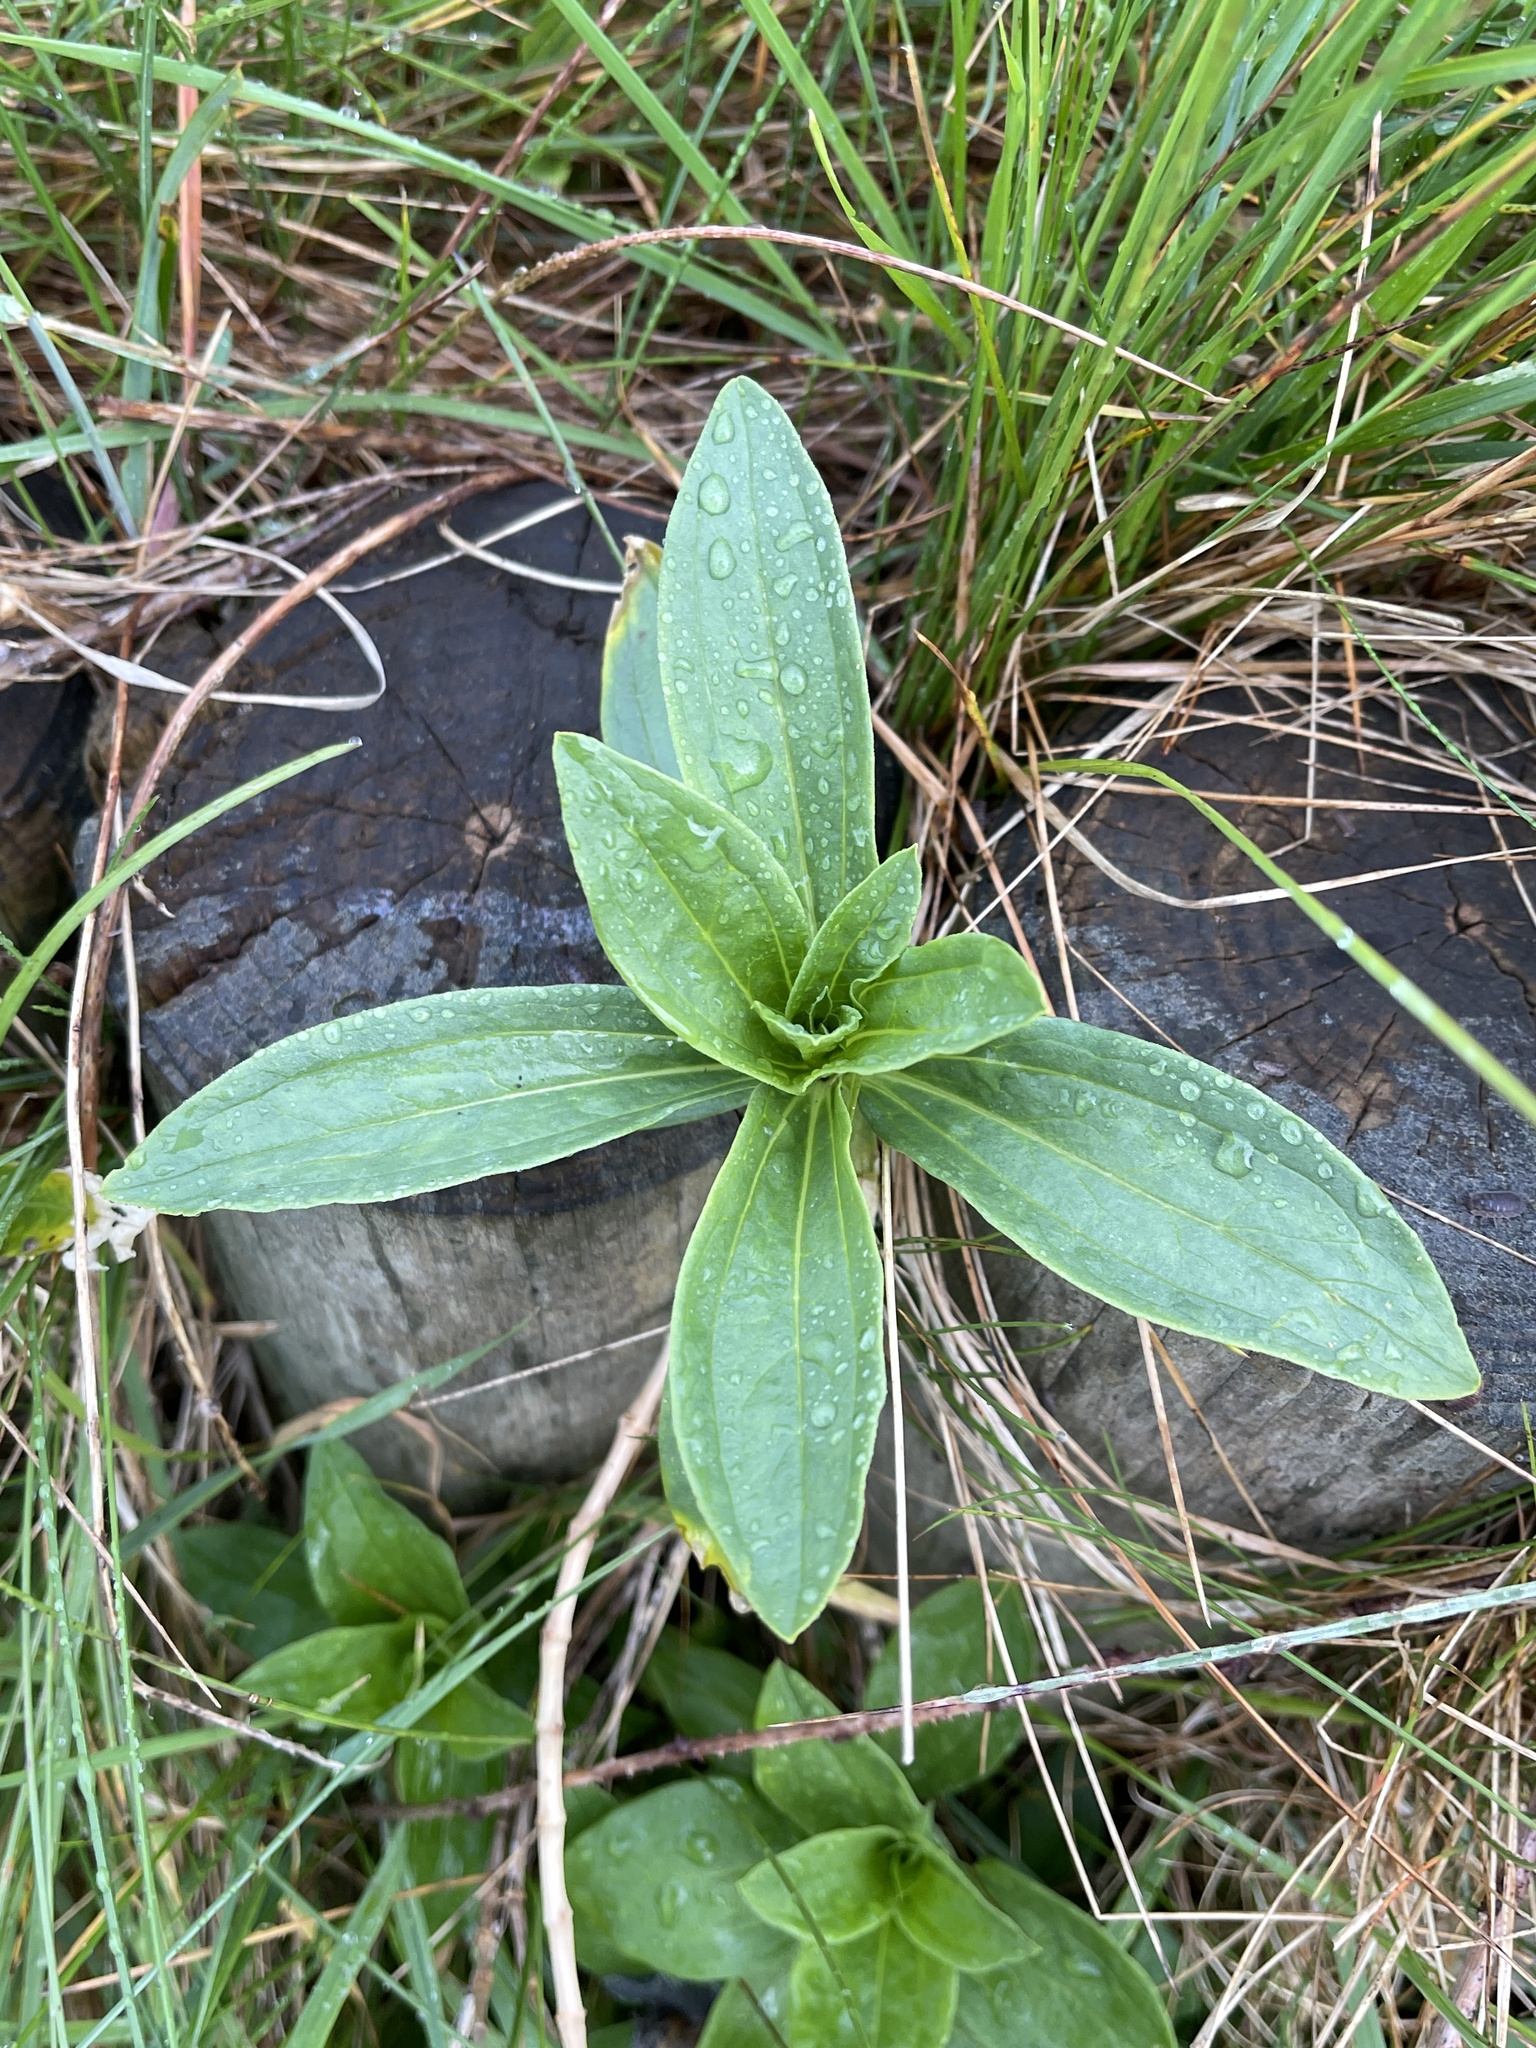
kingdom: Plantae
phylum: Tracheophyta
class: Magnoliopsida
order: Caryophyllales
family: Caryophyllaceae
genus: Saponaria
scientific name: Saponaria officinalis
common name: Soapwort
